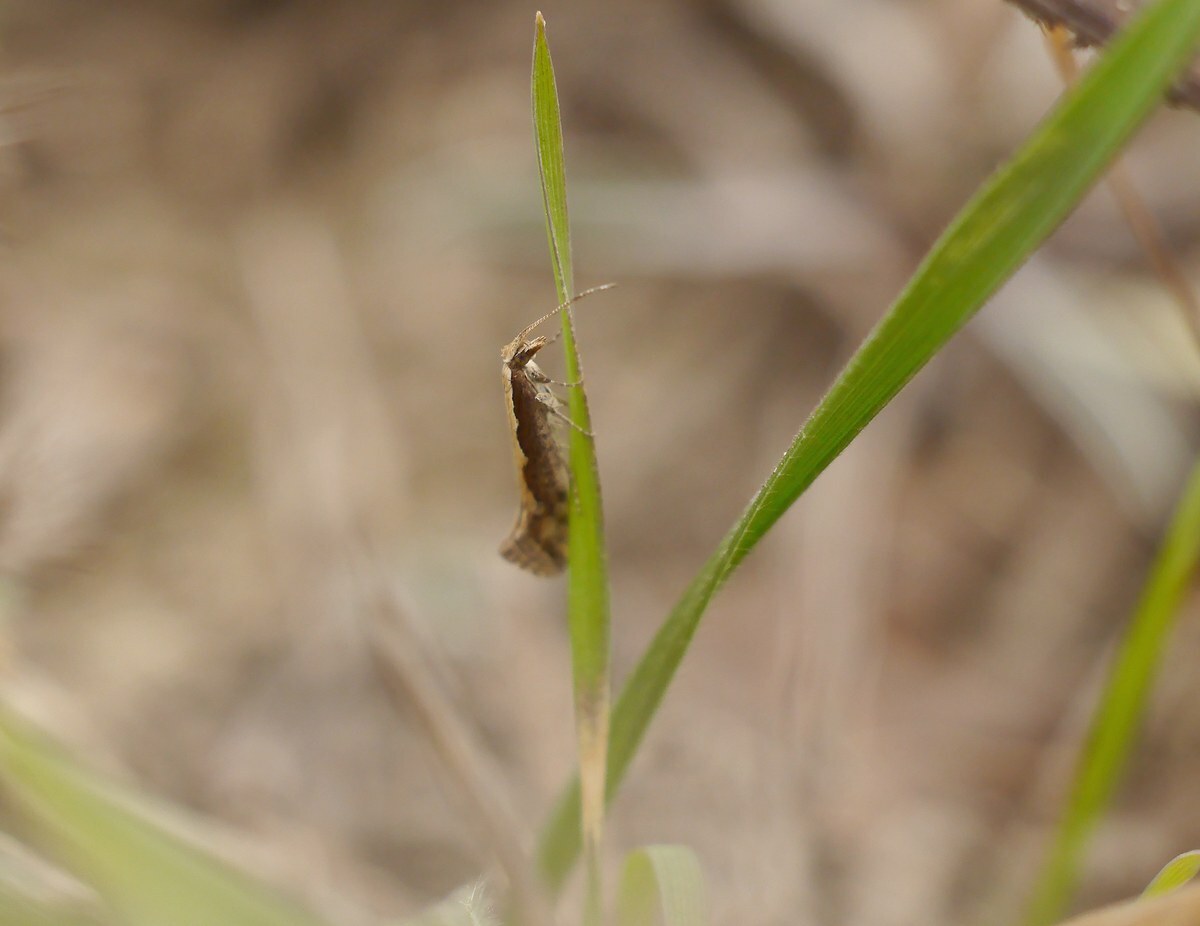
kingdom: Animalia
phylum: Arthropoda
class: Insecta
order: Lepidoptera
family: Plutellidae
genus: Plutella
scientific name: Plutella xylostella
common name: Diamond-back moth
